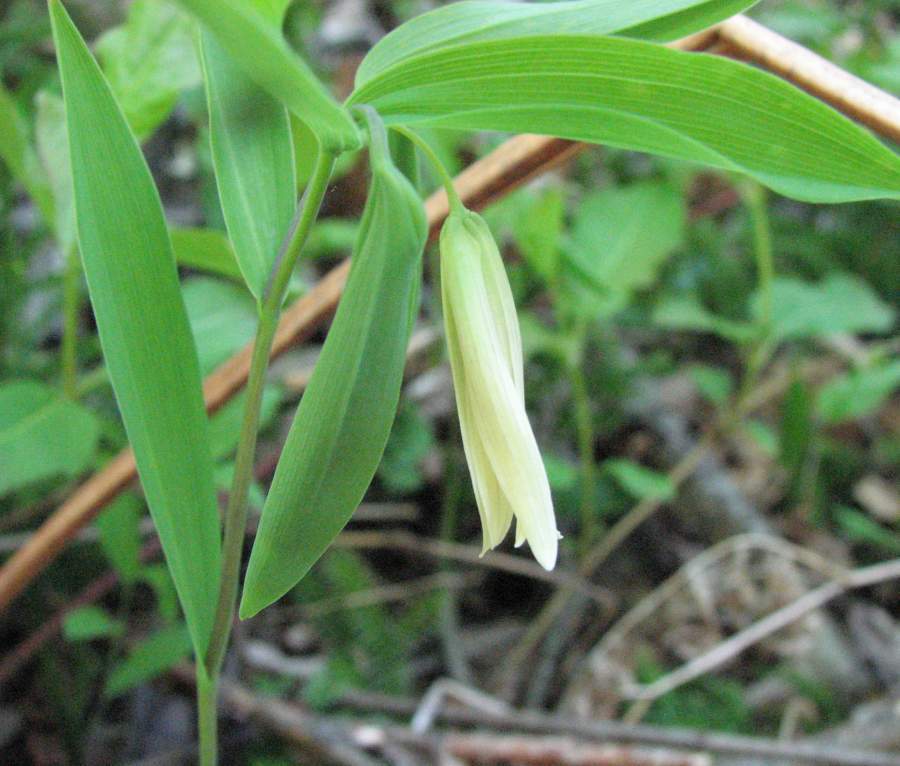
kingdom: Plantae
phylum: Tracheophyta
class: Liliopsida
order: Liliales
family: Colchicaceae
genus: Uvularia
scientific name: Uvularia sessilifolia
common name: Straw-lily
